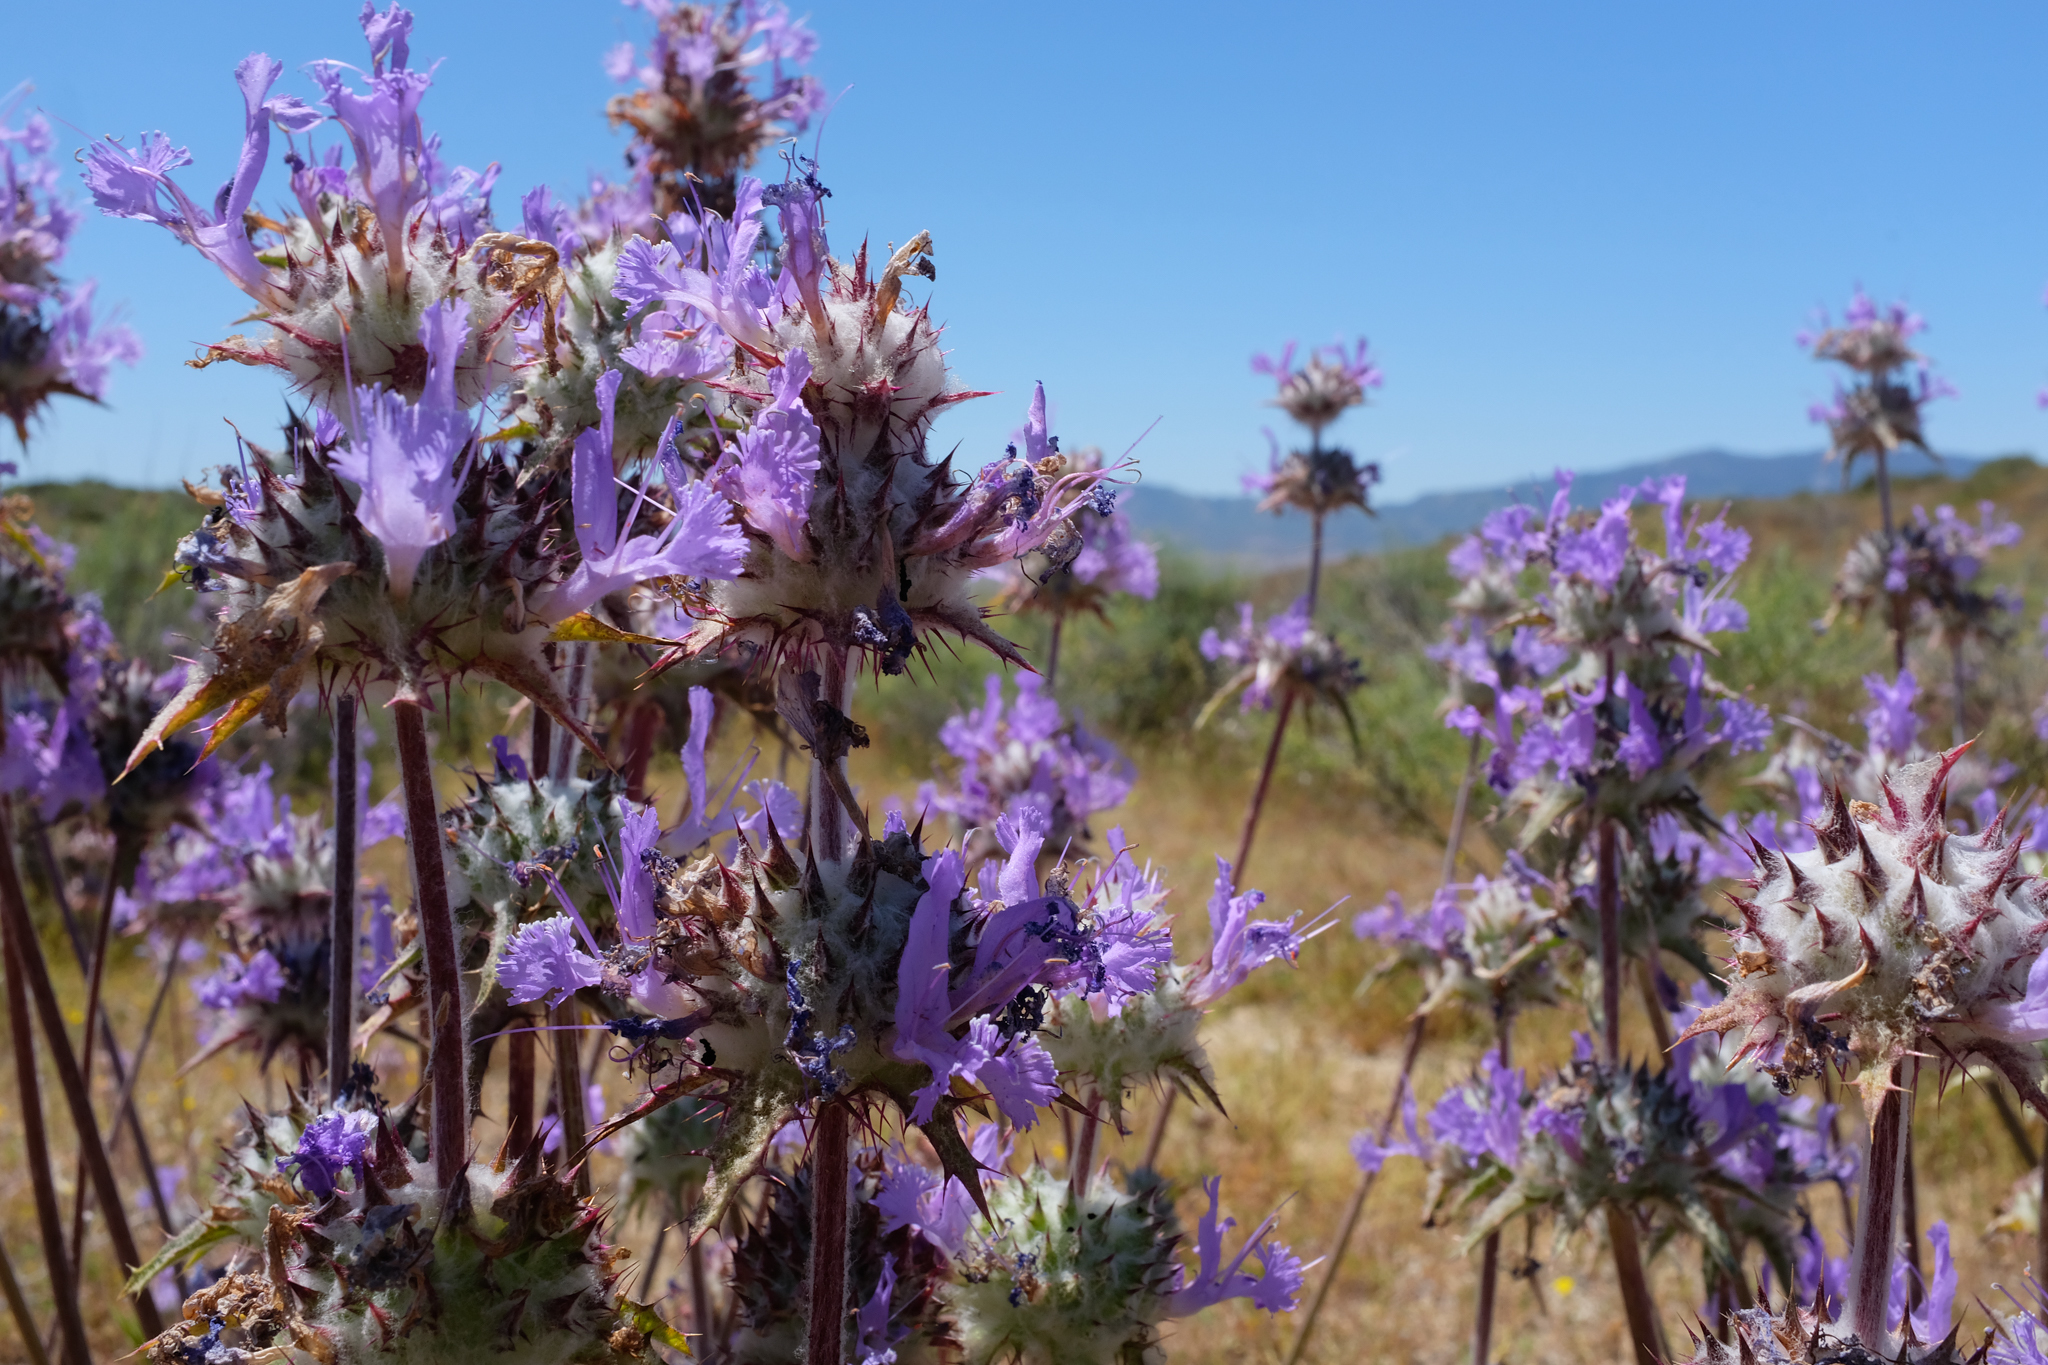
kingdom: Plantae
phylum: Tracheophyta
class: Magnoliopsida
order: Lamiales
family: Lamiaceae
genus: Salvia
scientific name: Salvia carduacea
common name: Thistle sage
